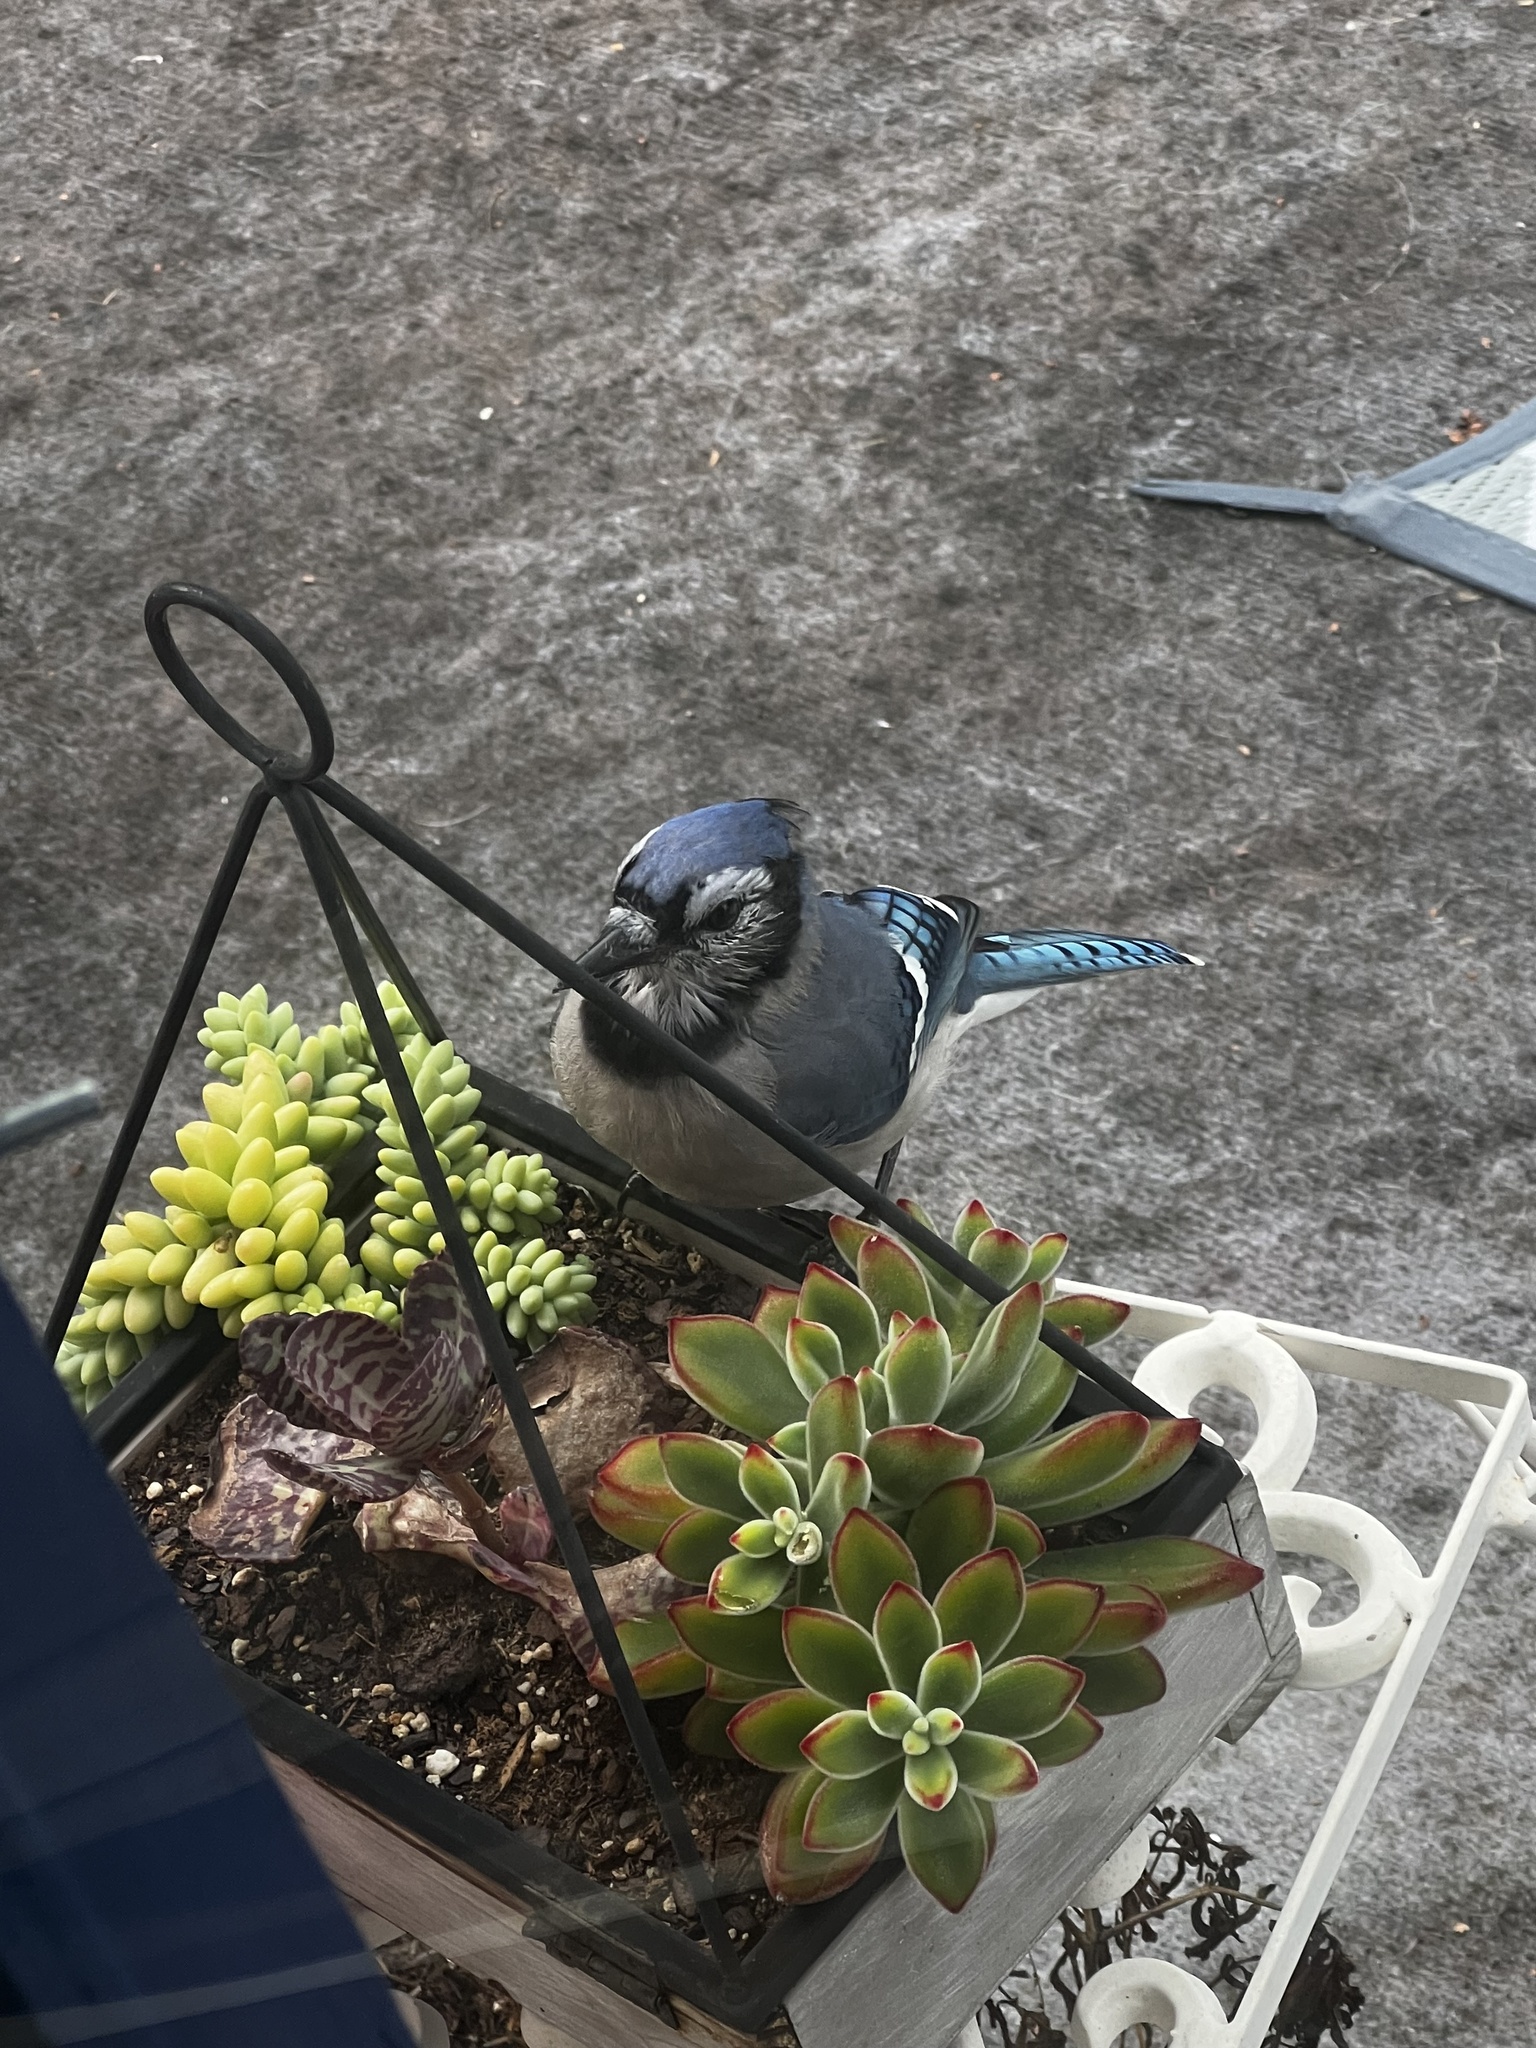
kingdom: Animalia
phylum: Chordata
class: Aves
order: Passeriformes
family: Corvidae
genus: Cyanocitta
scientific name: Cyanocitta cristata
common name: Blue jay
